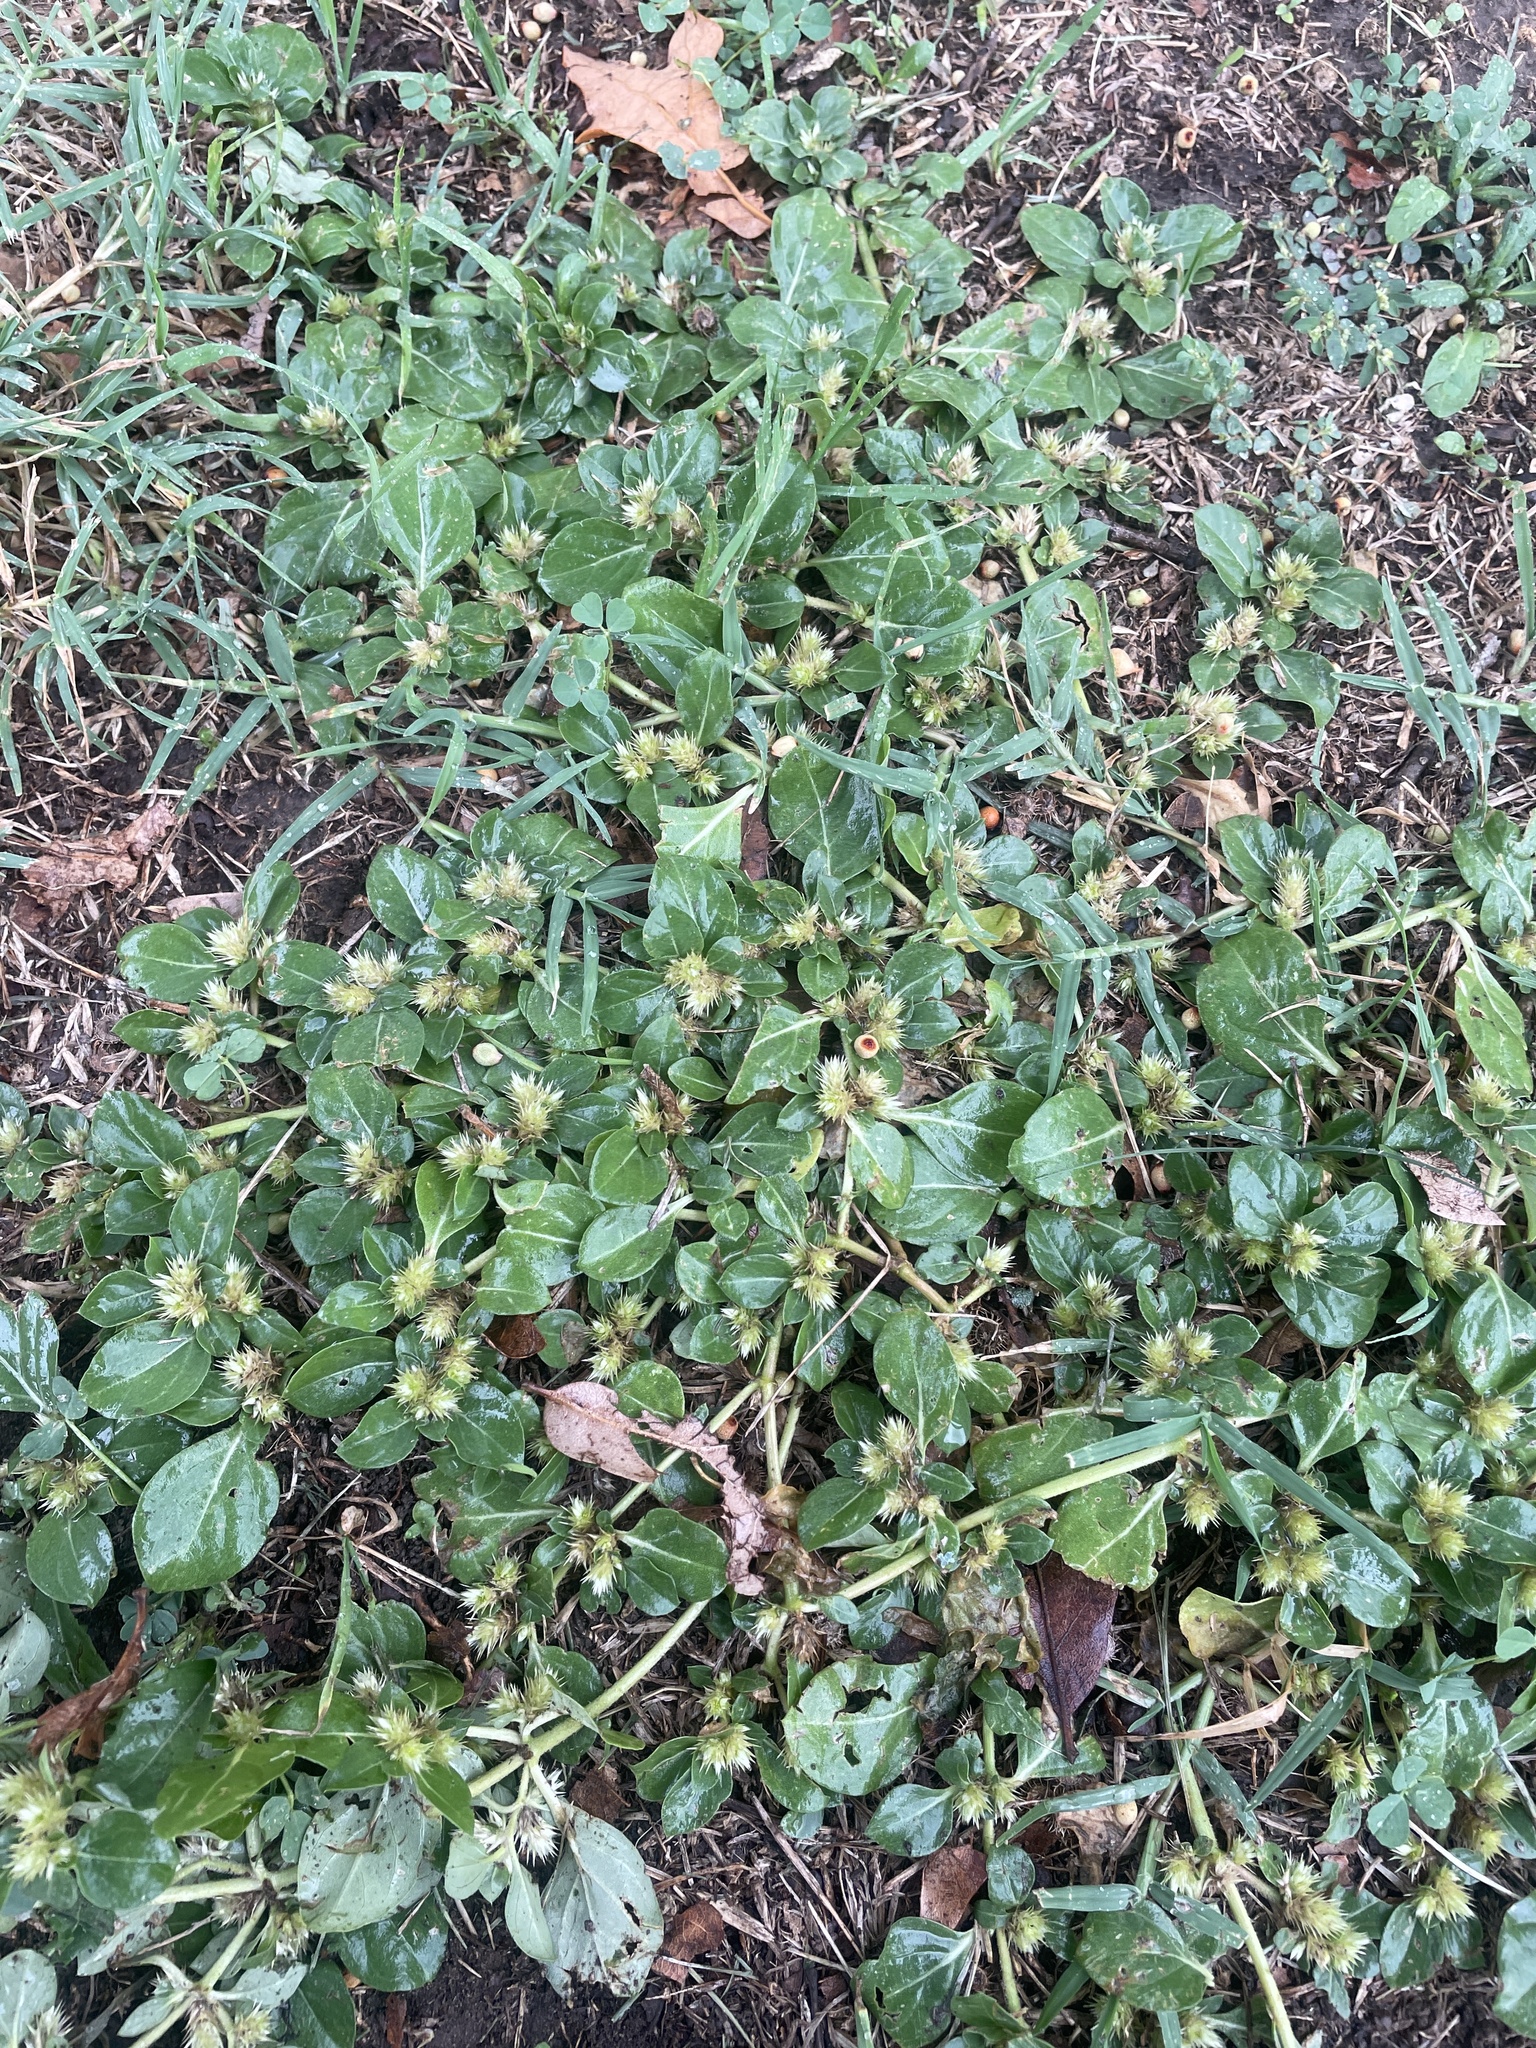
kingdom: Plantae
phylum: Tracheophyta
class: Magnoliopsida
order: Caryophyllales
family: Amaranthaceae
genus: Alternanthera
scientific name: Alternanthera pungens
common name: Khakiweed
